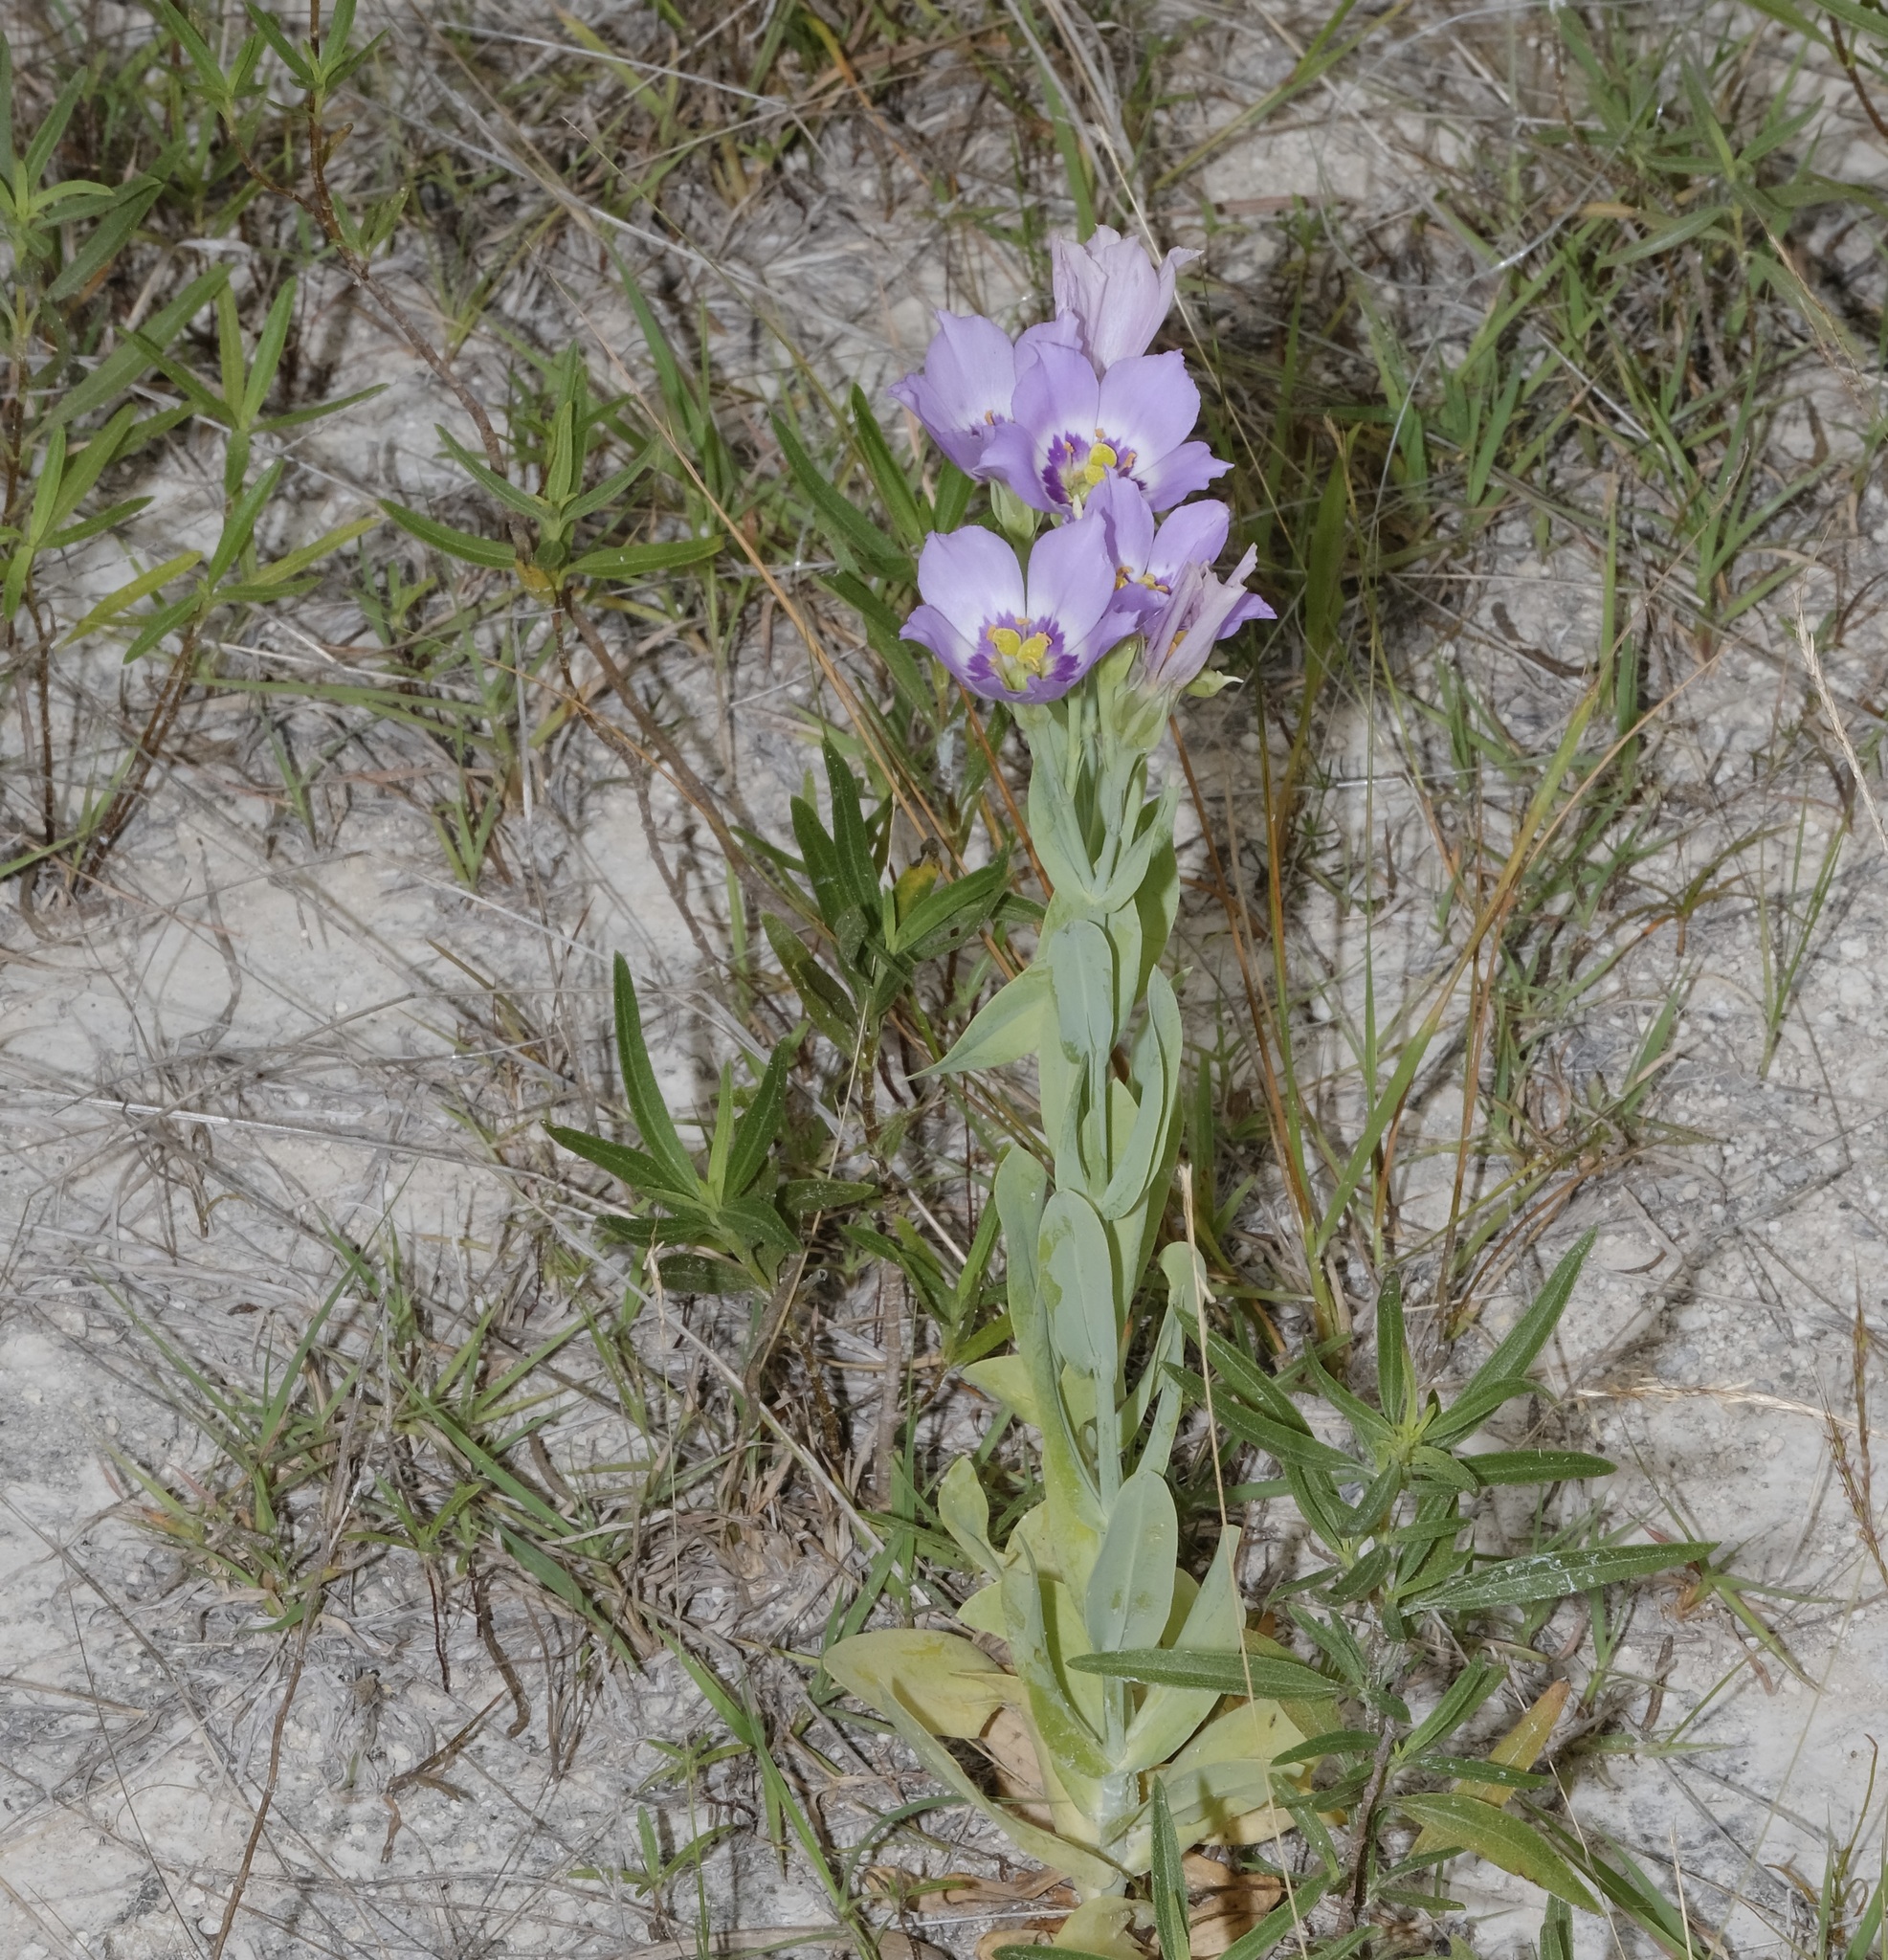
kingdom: Plantae
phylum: Tracheophyta
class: Magnoliopsida
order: Gentianales
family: Gentianaceae
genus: Eustoma
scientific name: Eustoma exaltatum
